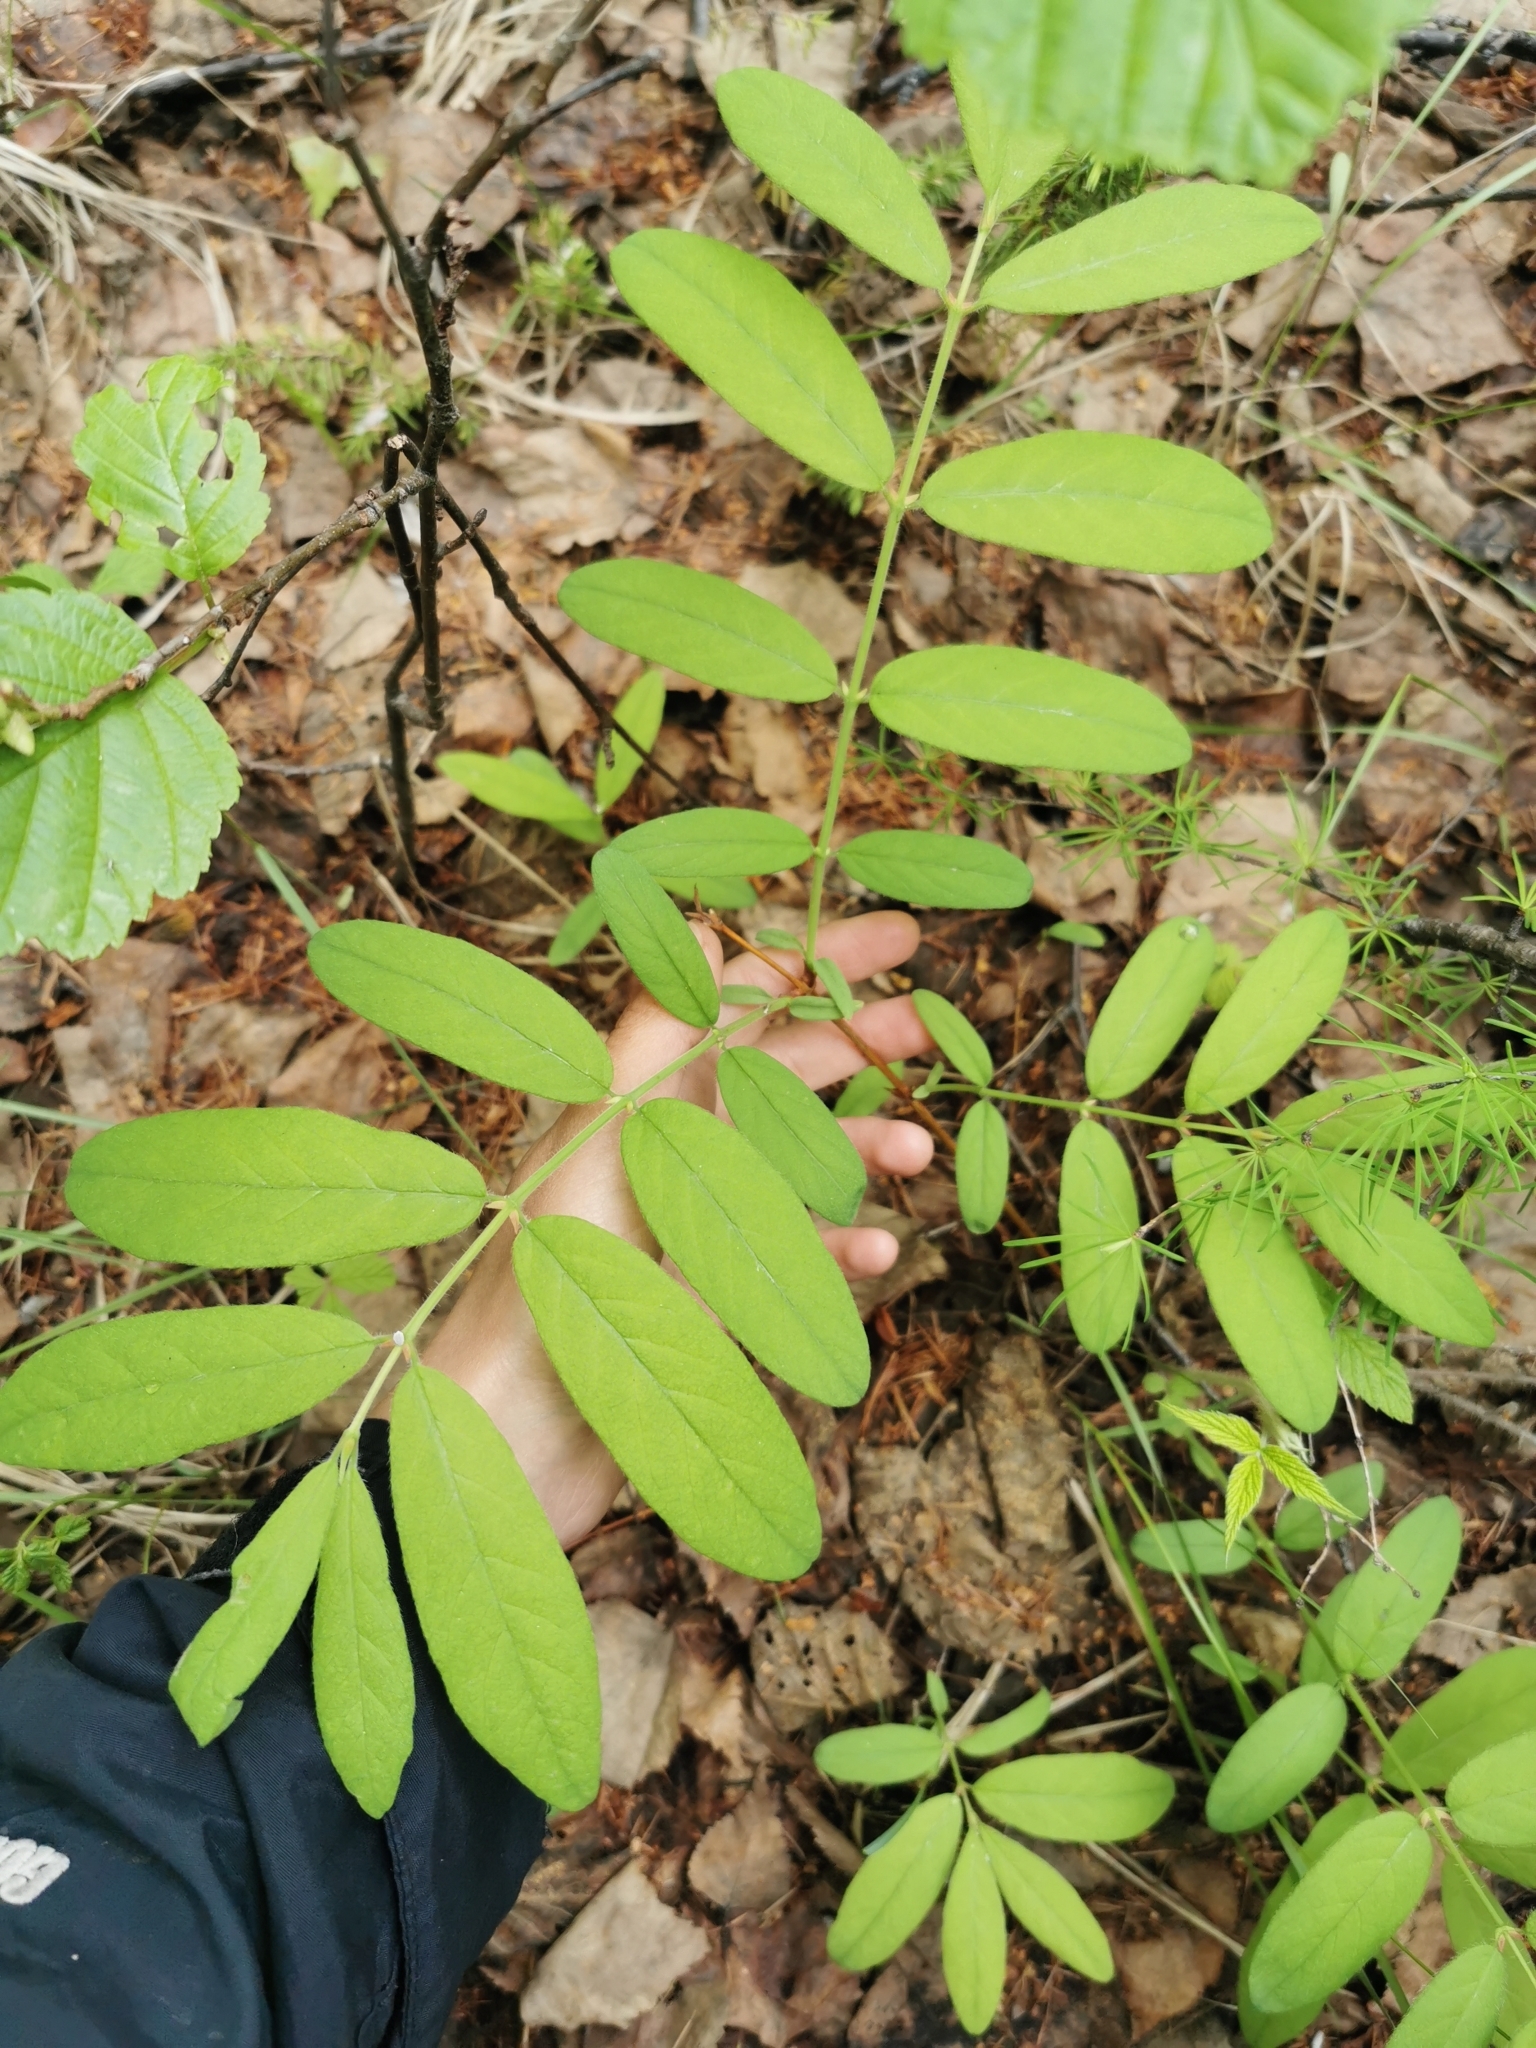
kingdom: Plantae
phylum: Tracheophyta
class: Magnoliopsida
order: Dipsacales
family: Caprifoliaceae
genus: Lonicera
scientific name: Lonicera caerulea
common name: Blue honeysuckle
